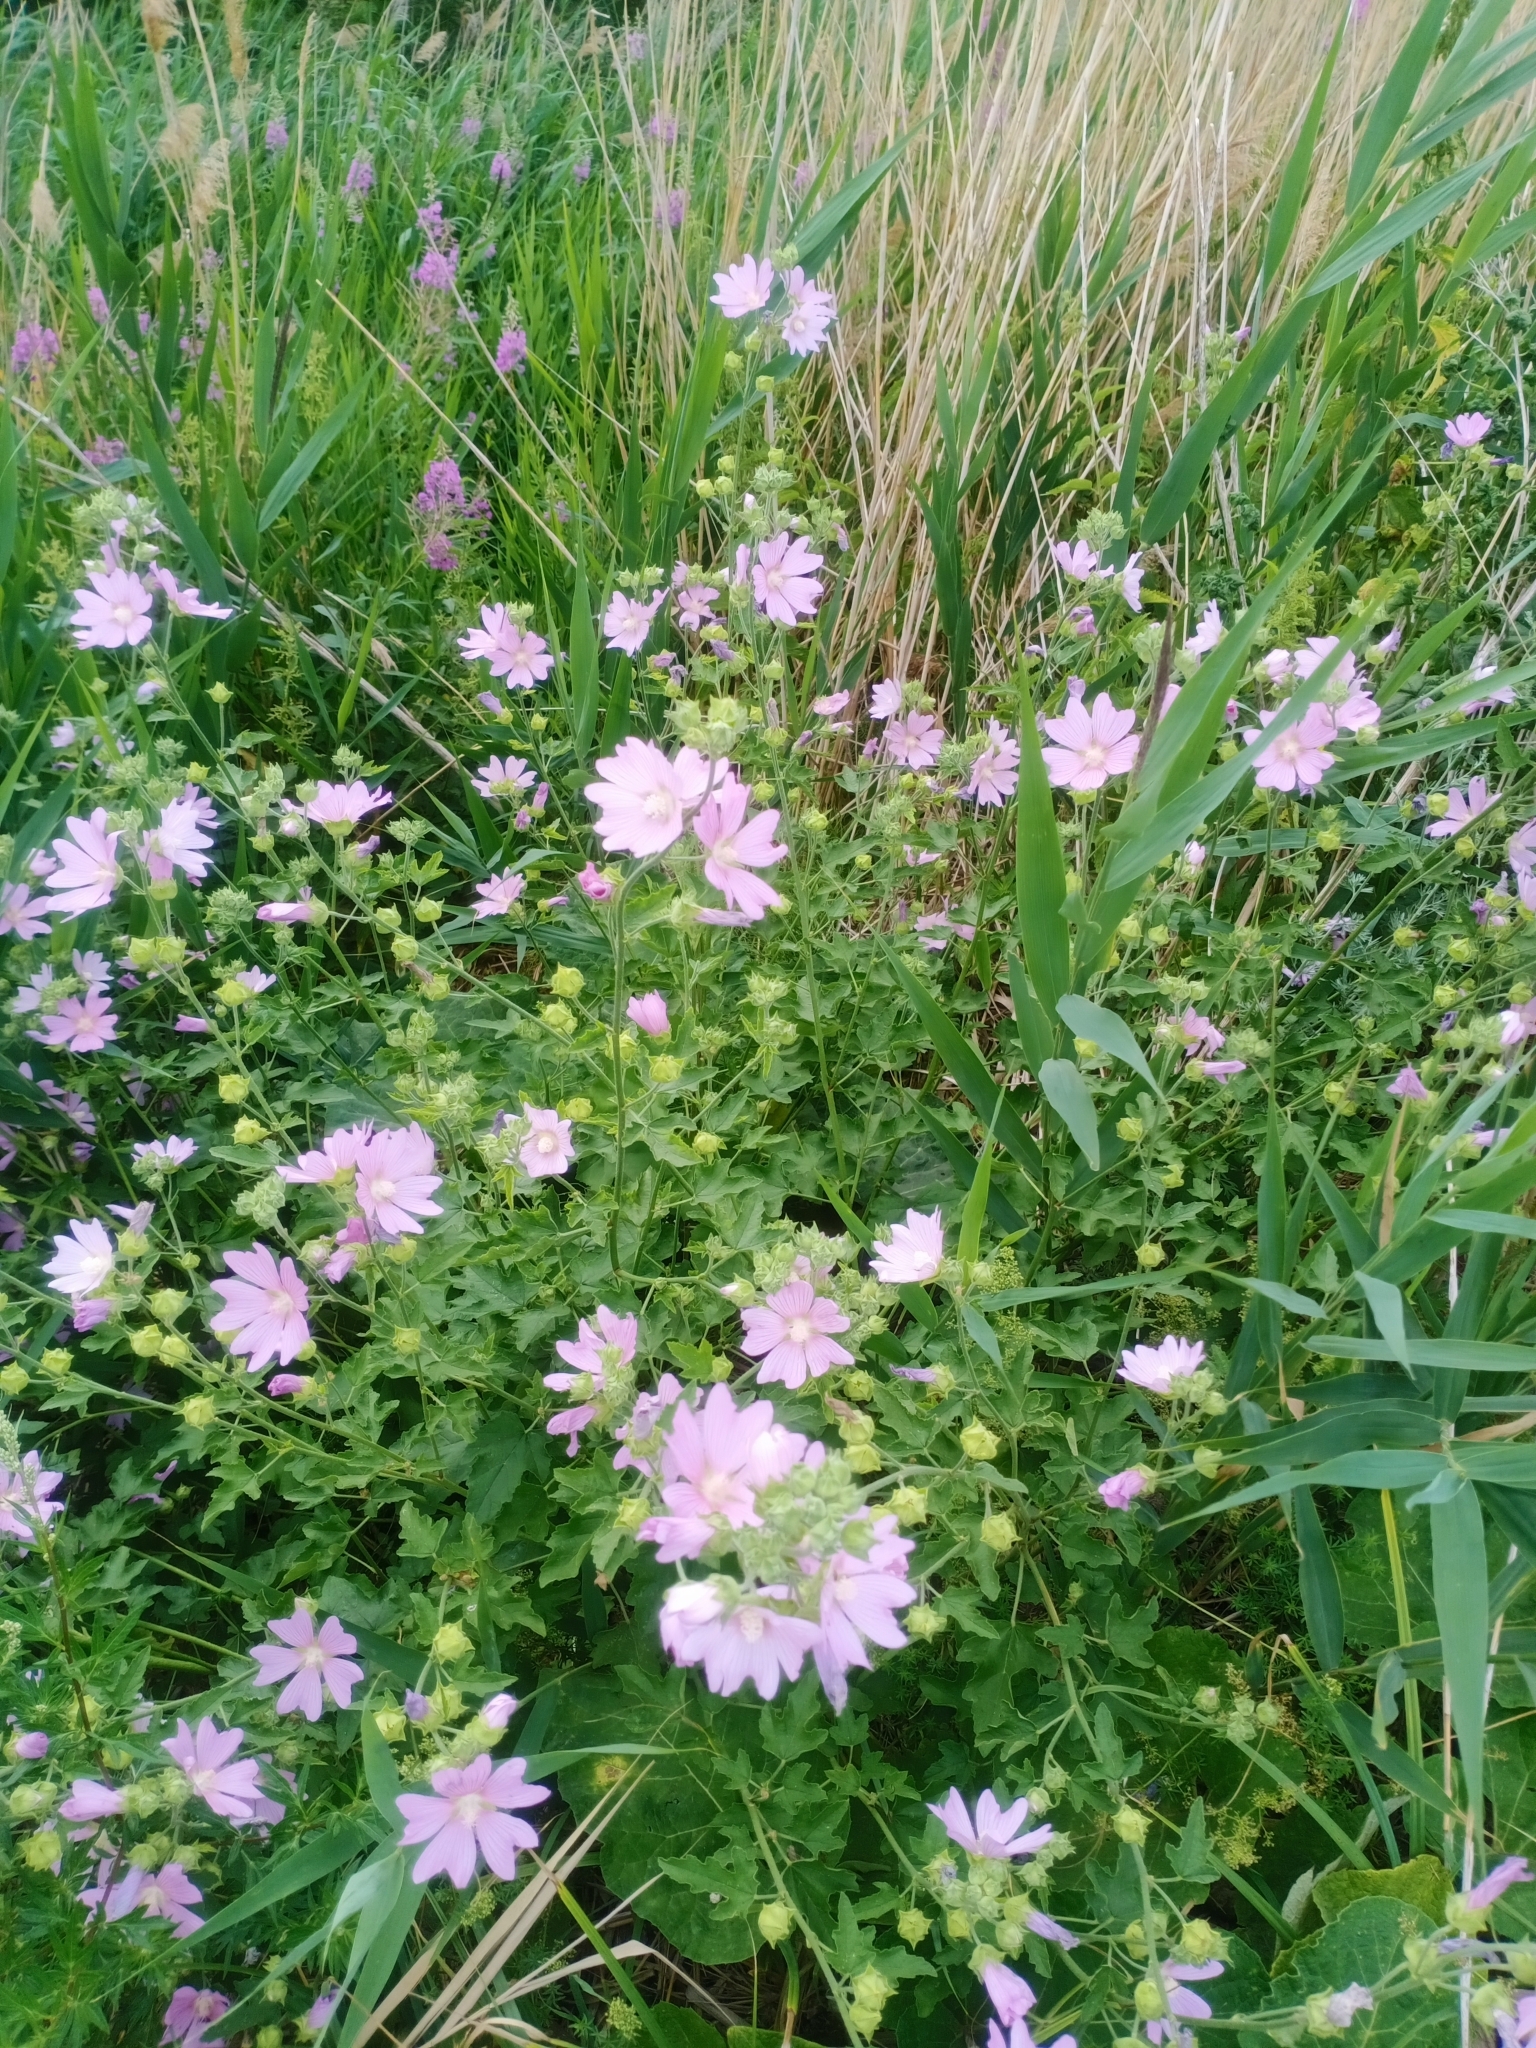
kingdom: Plantae
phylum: Tracheophyta
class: Magnoliopsida
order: Malvales
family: Malvaceae
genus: Malva
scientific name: Malva thuringiaca
